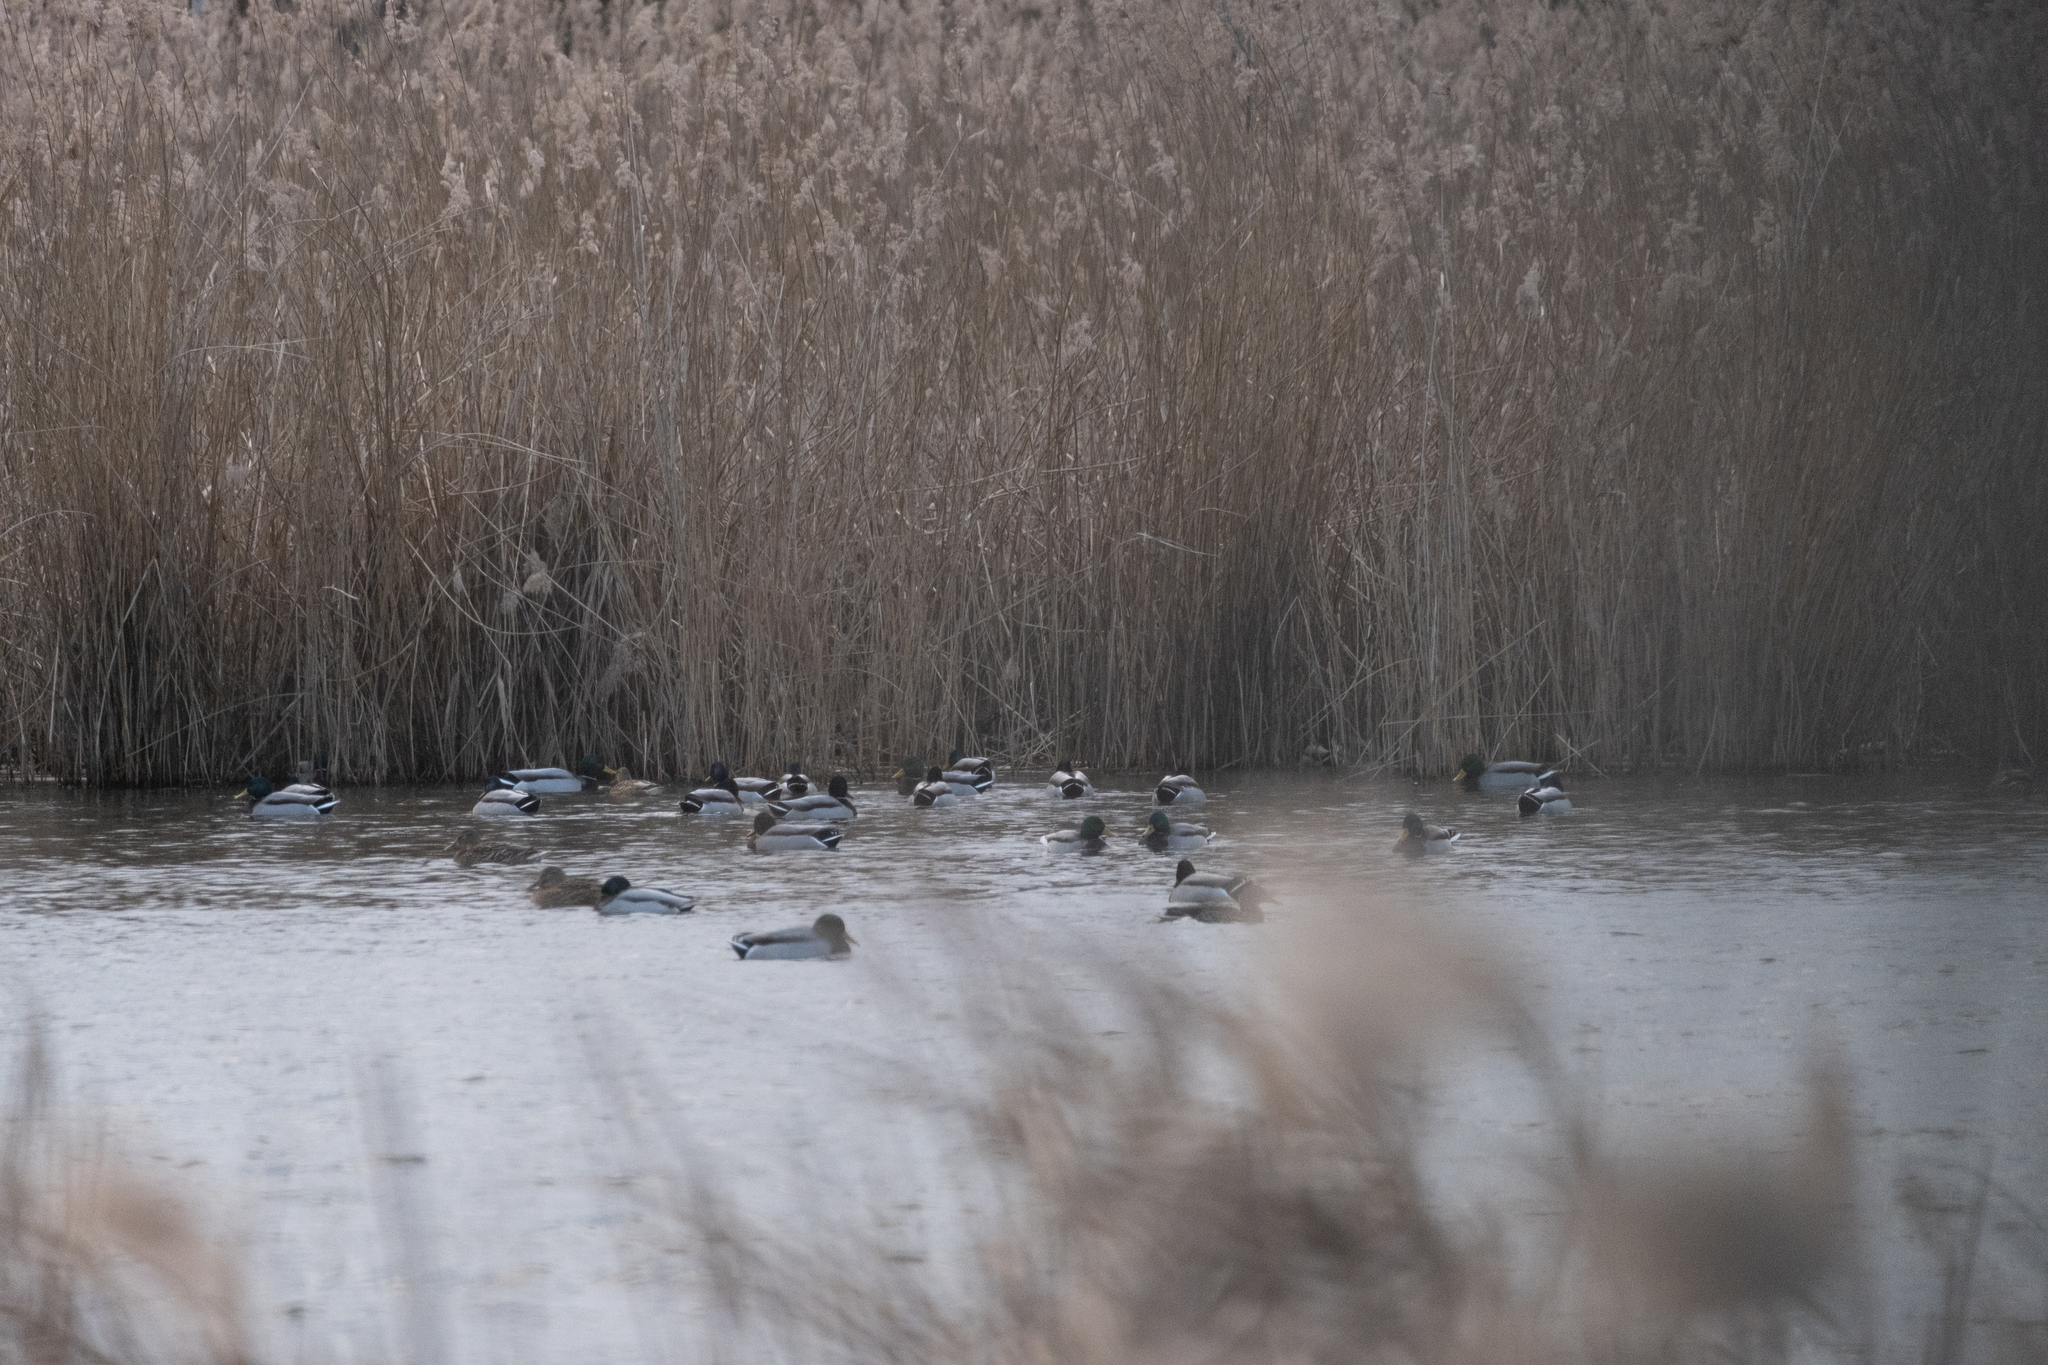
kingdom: Animalia
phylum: Chordata
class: Aves
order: Anseriformes
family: Anatidae
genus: Anas
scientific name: Anas platyrhynchos
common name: Mallard
